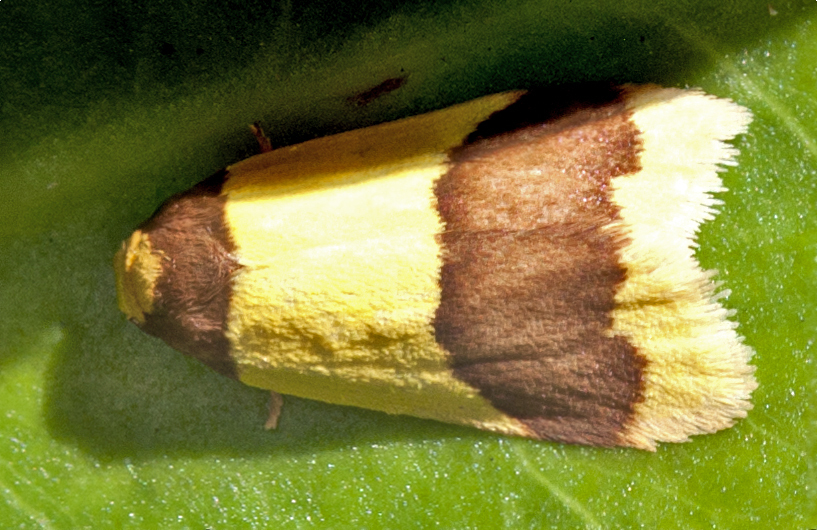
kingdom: Animalia
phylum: Arthropoda
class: Insecta
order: Lepidoptera
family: Erebidae
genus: Heterallactis
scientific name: Heterallactis microchrysa
